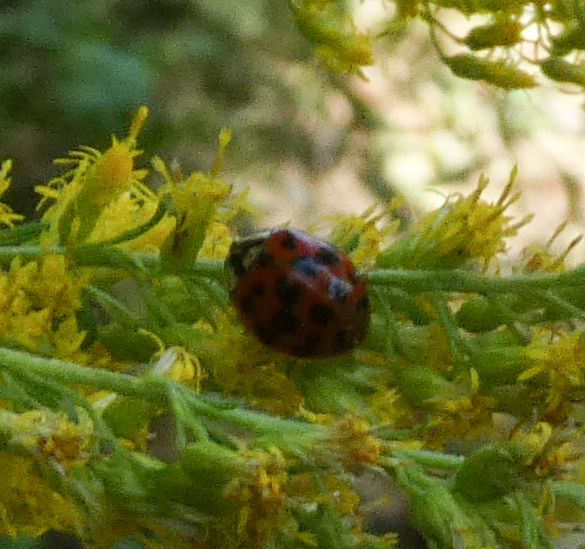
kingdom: Animalia
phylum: Arthropoda
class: Insecta
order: Coleoptera
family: Coccinellidae
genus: Harmonia
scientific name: Harmonia axyridis
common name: Harlequin ladybird
